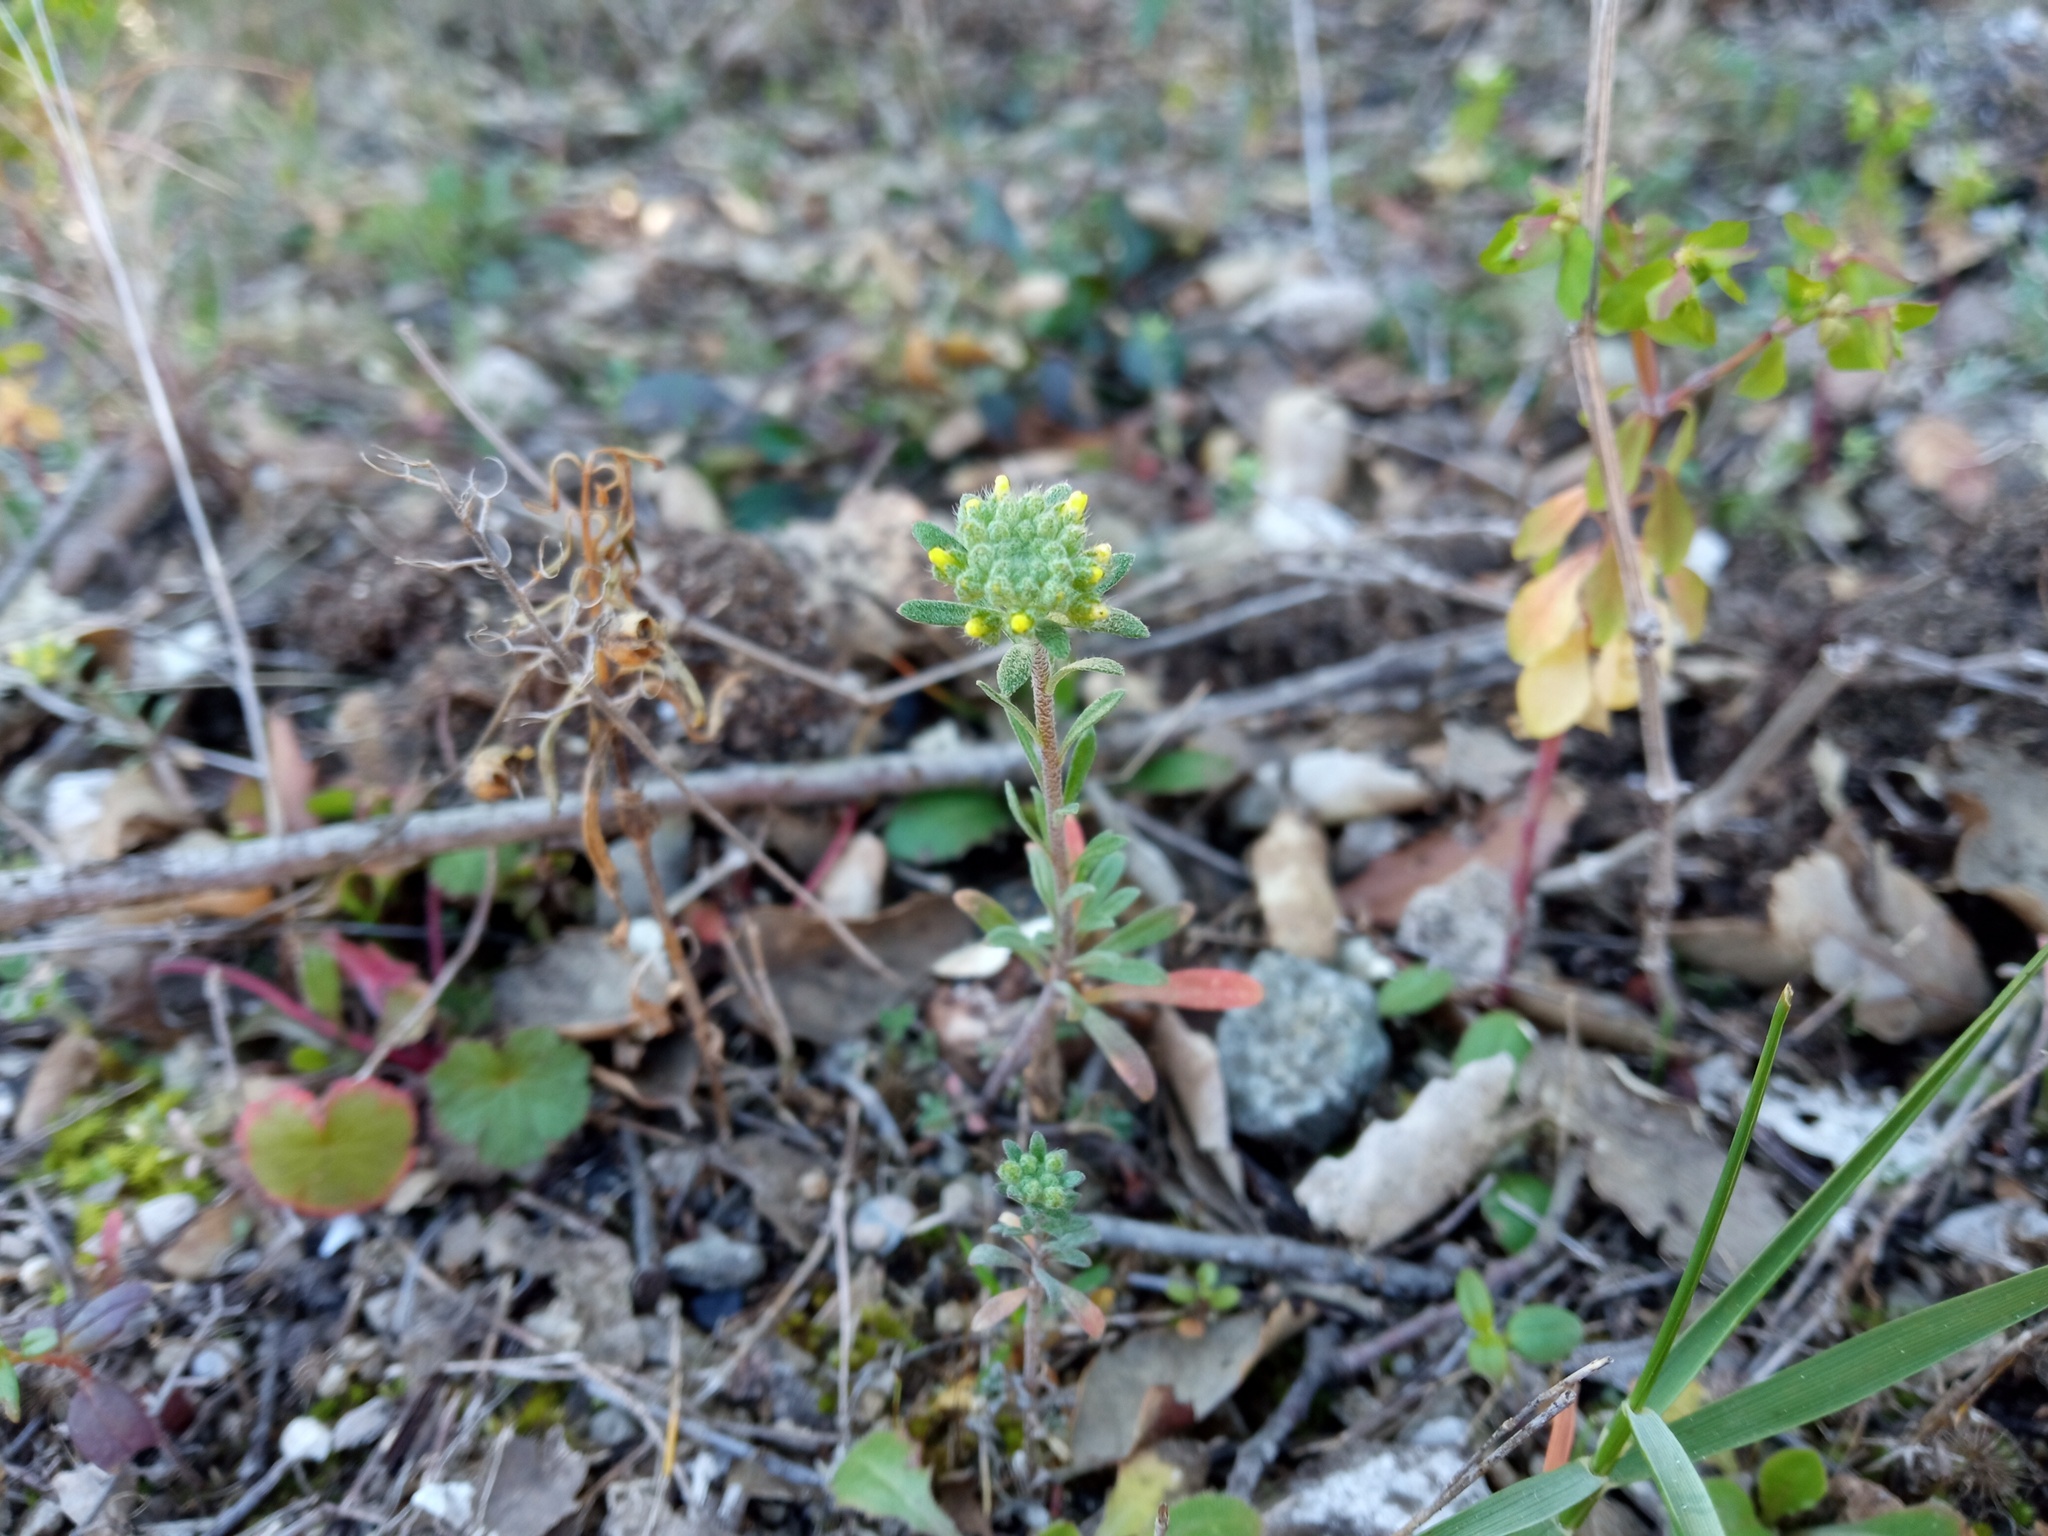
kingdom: Plantae
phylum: Tracheophyta
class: Magnoliopsida
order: Brassicales
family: Brassicaceae
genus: Alyssum
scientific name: Alyssum alyssoides
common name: Small alison
